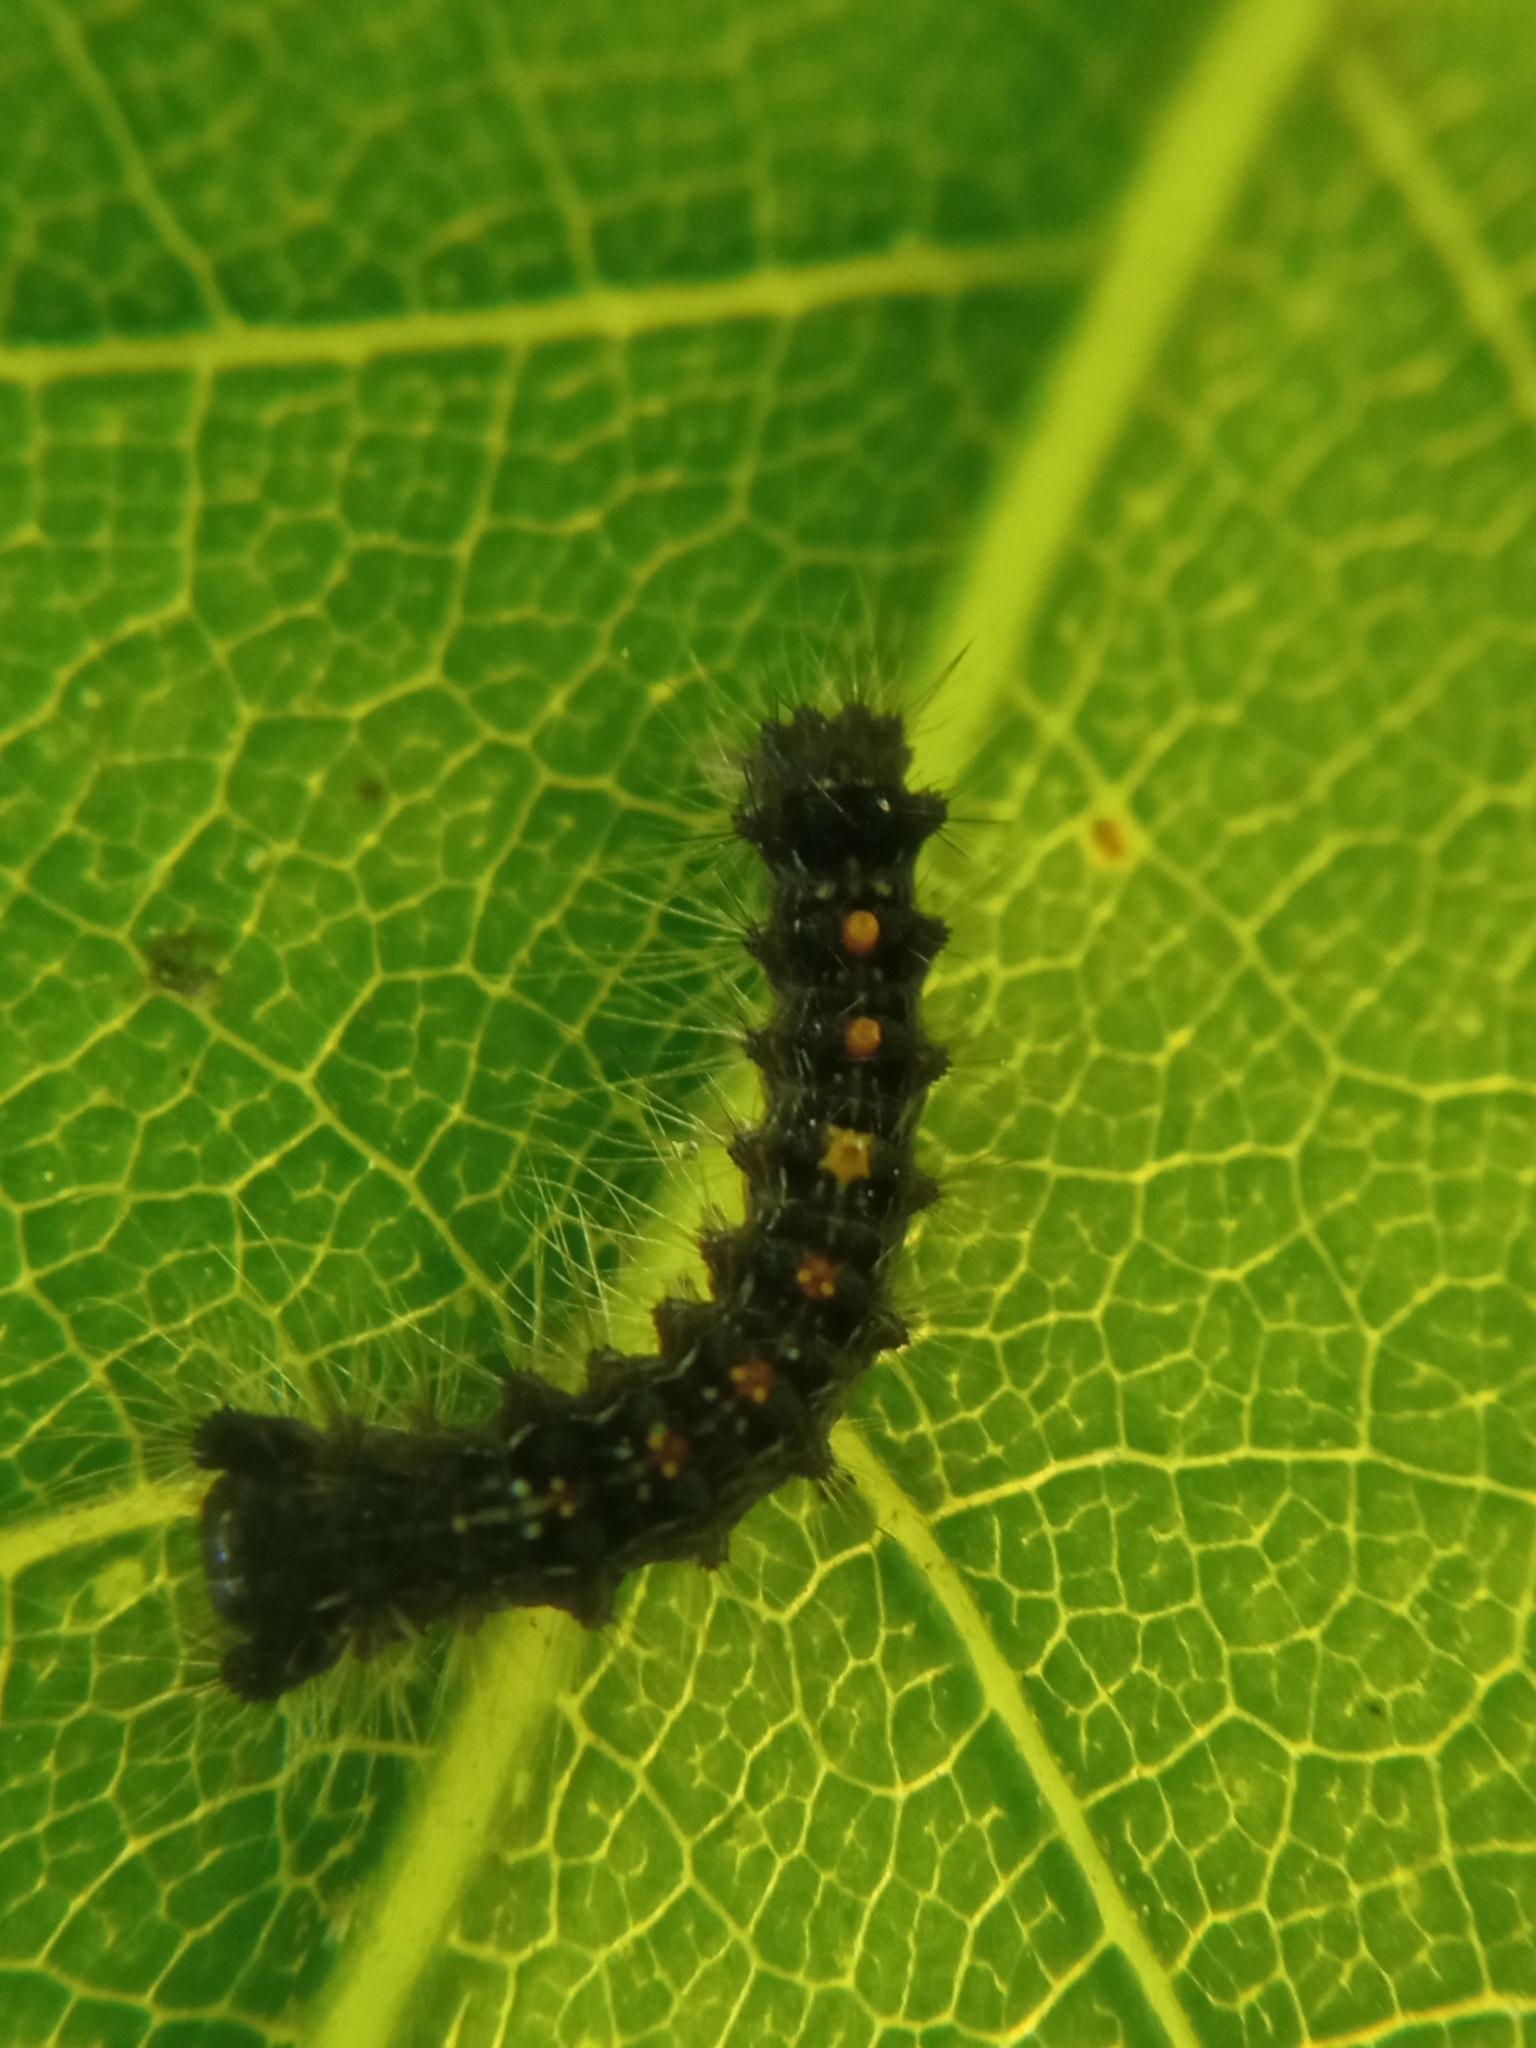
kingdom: Animalia
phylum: Arthropoda
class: Insecta
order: Lepidoptera
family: Erebidae
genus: Lymantria
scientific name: Lymantria dispar
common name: Gypsy moth
